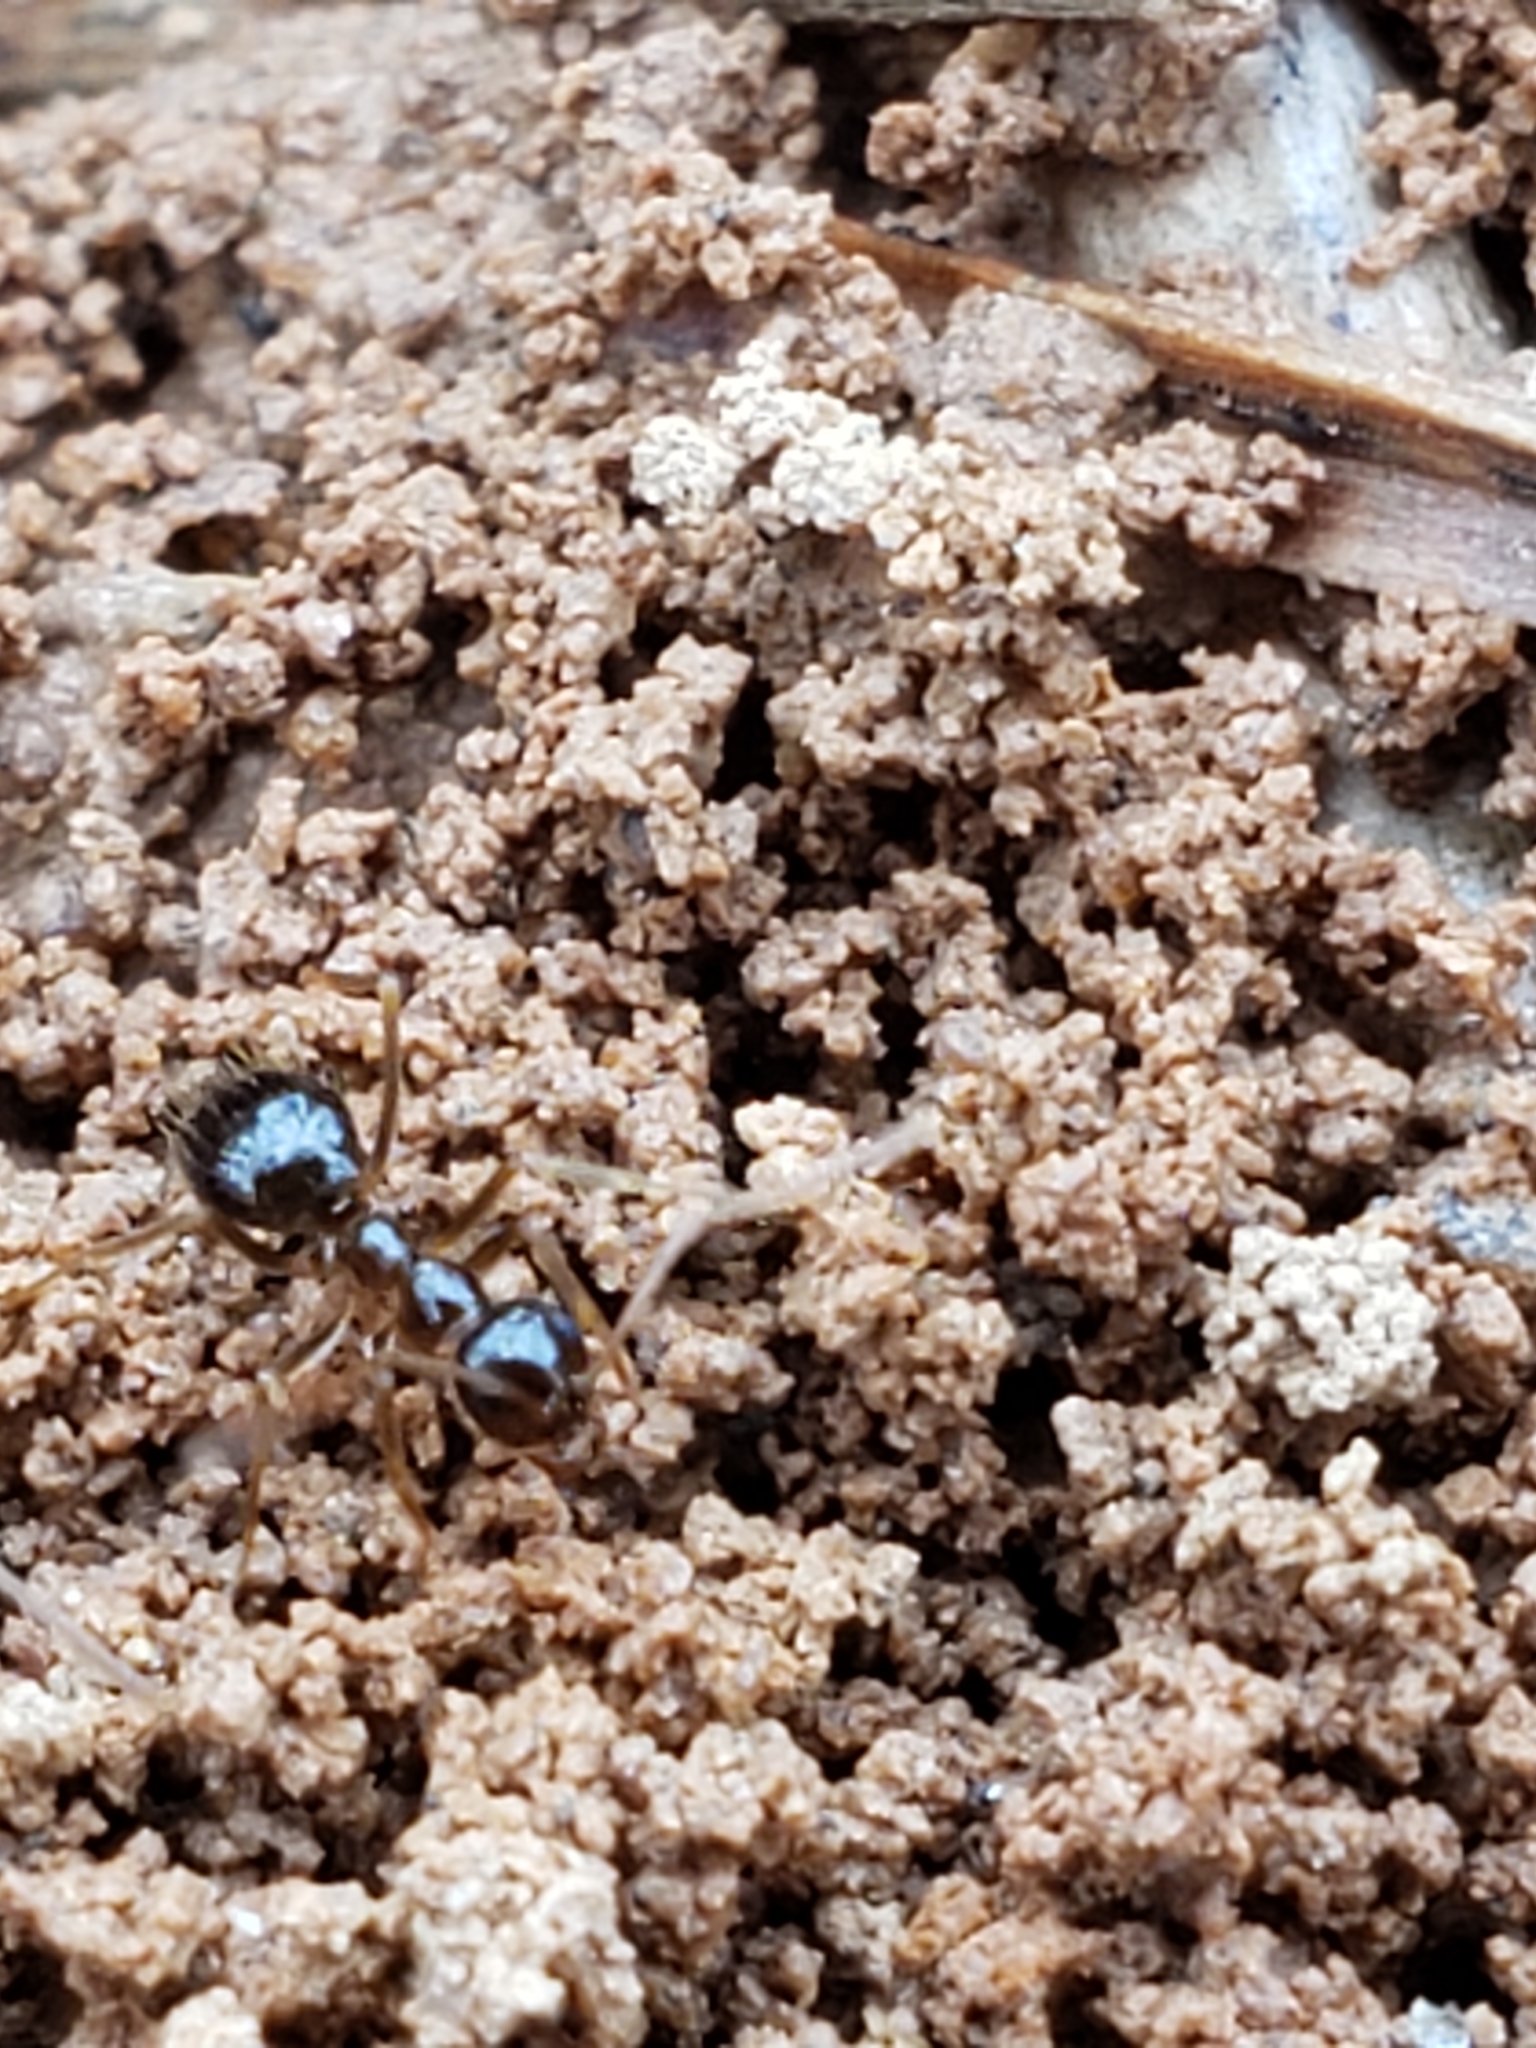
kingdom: Animalia
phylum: Arthropoda
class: Insecta
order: Hymenoptera
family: Formicidae
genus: Prenolepis
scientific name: Prenolepis imparis
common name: Small honey ant
